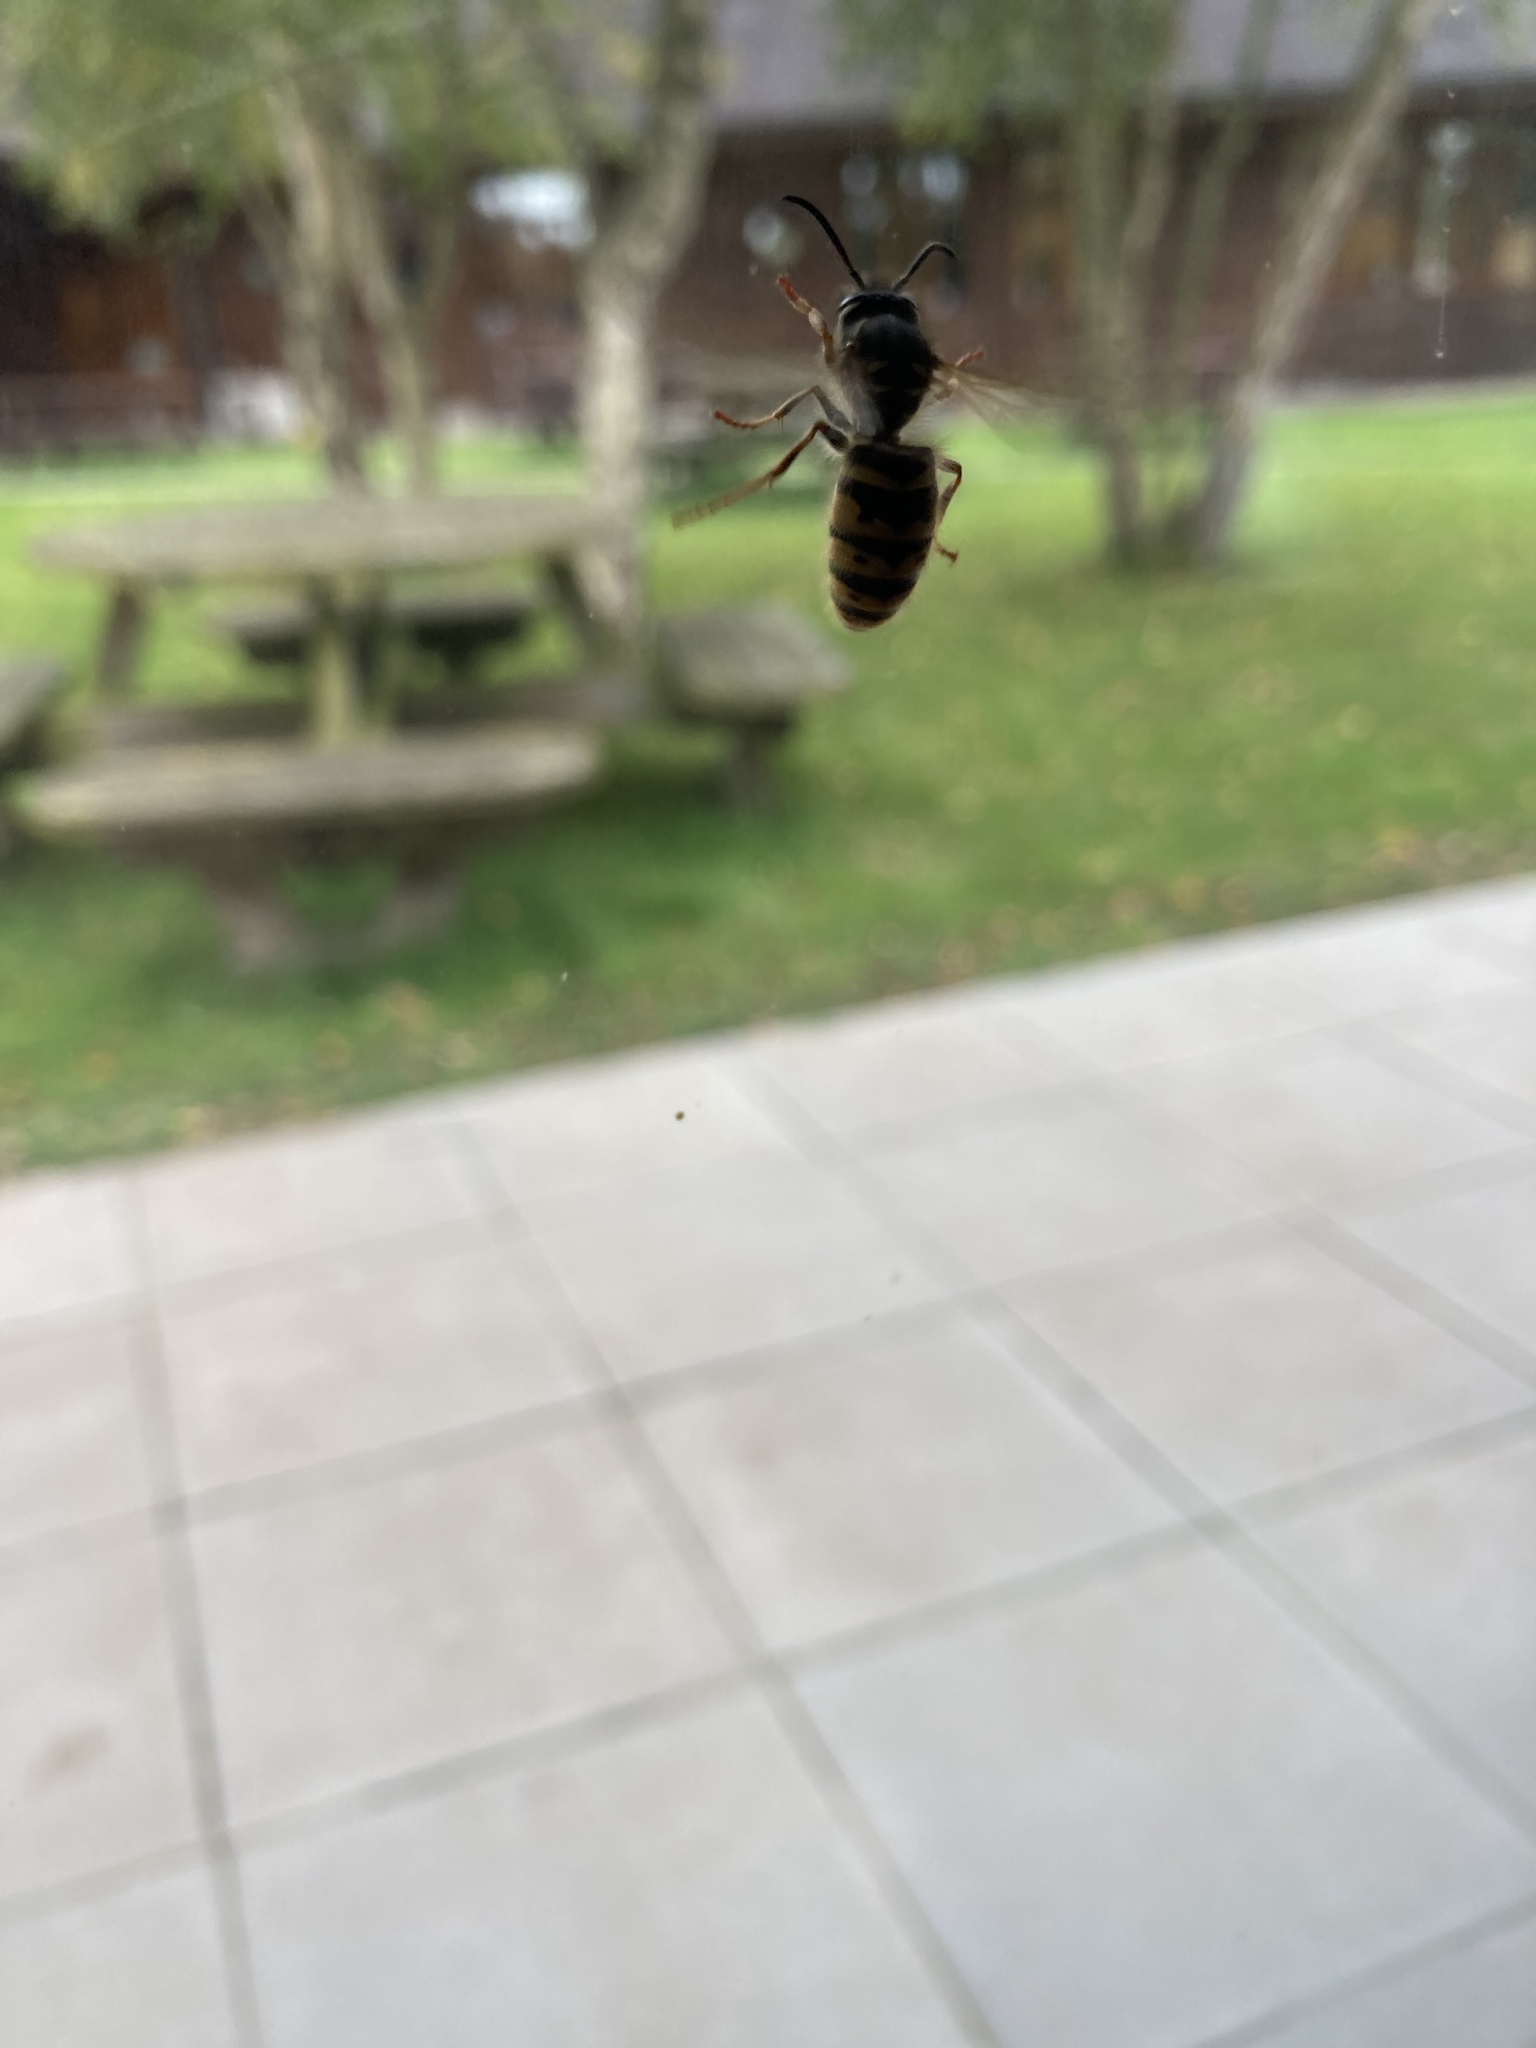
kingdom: Animalia
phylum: Arthropoda
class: Insecta
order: Hymenoptera
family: Vespidae
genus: Vespula
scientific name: Vespula vulgaris
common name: Common wasp
